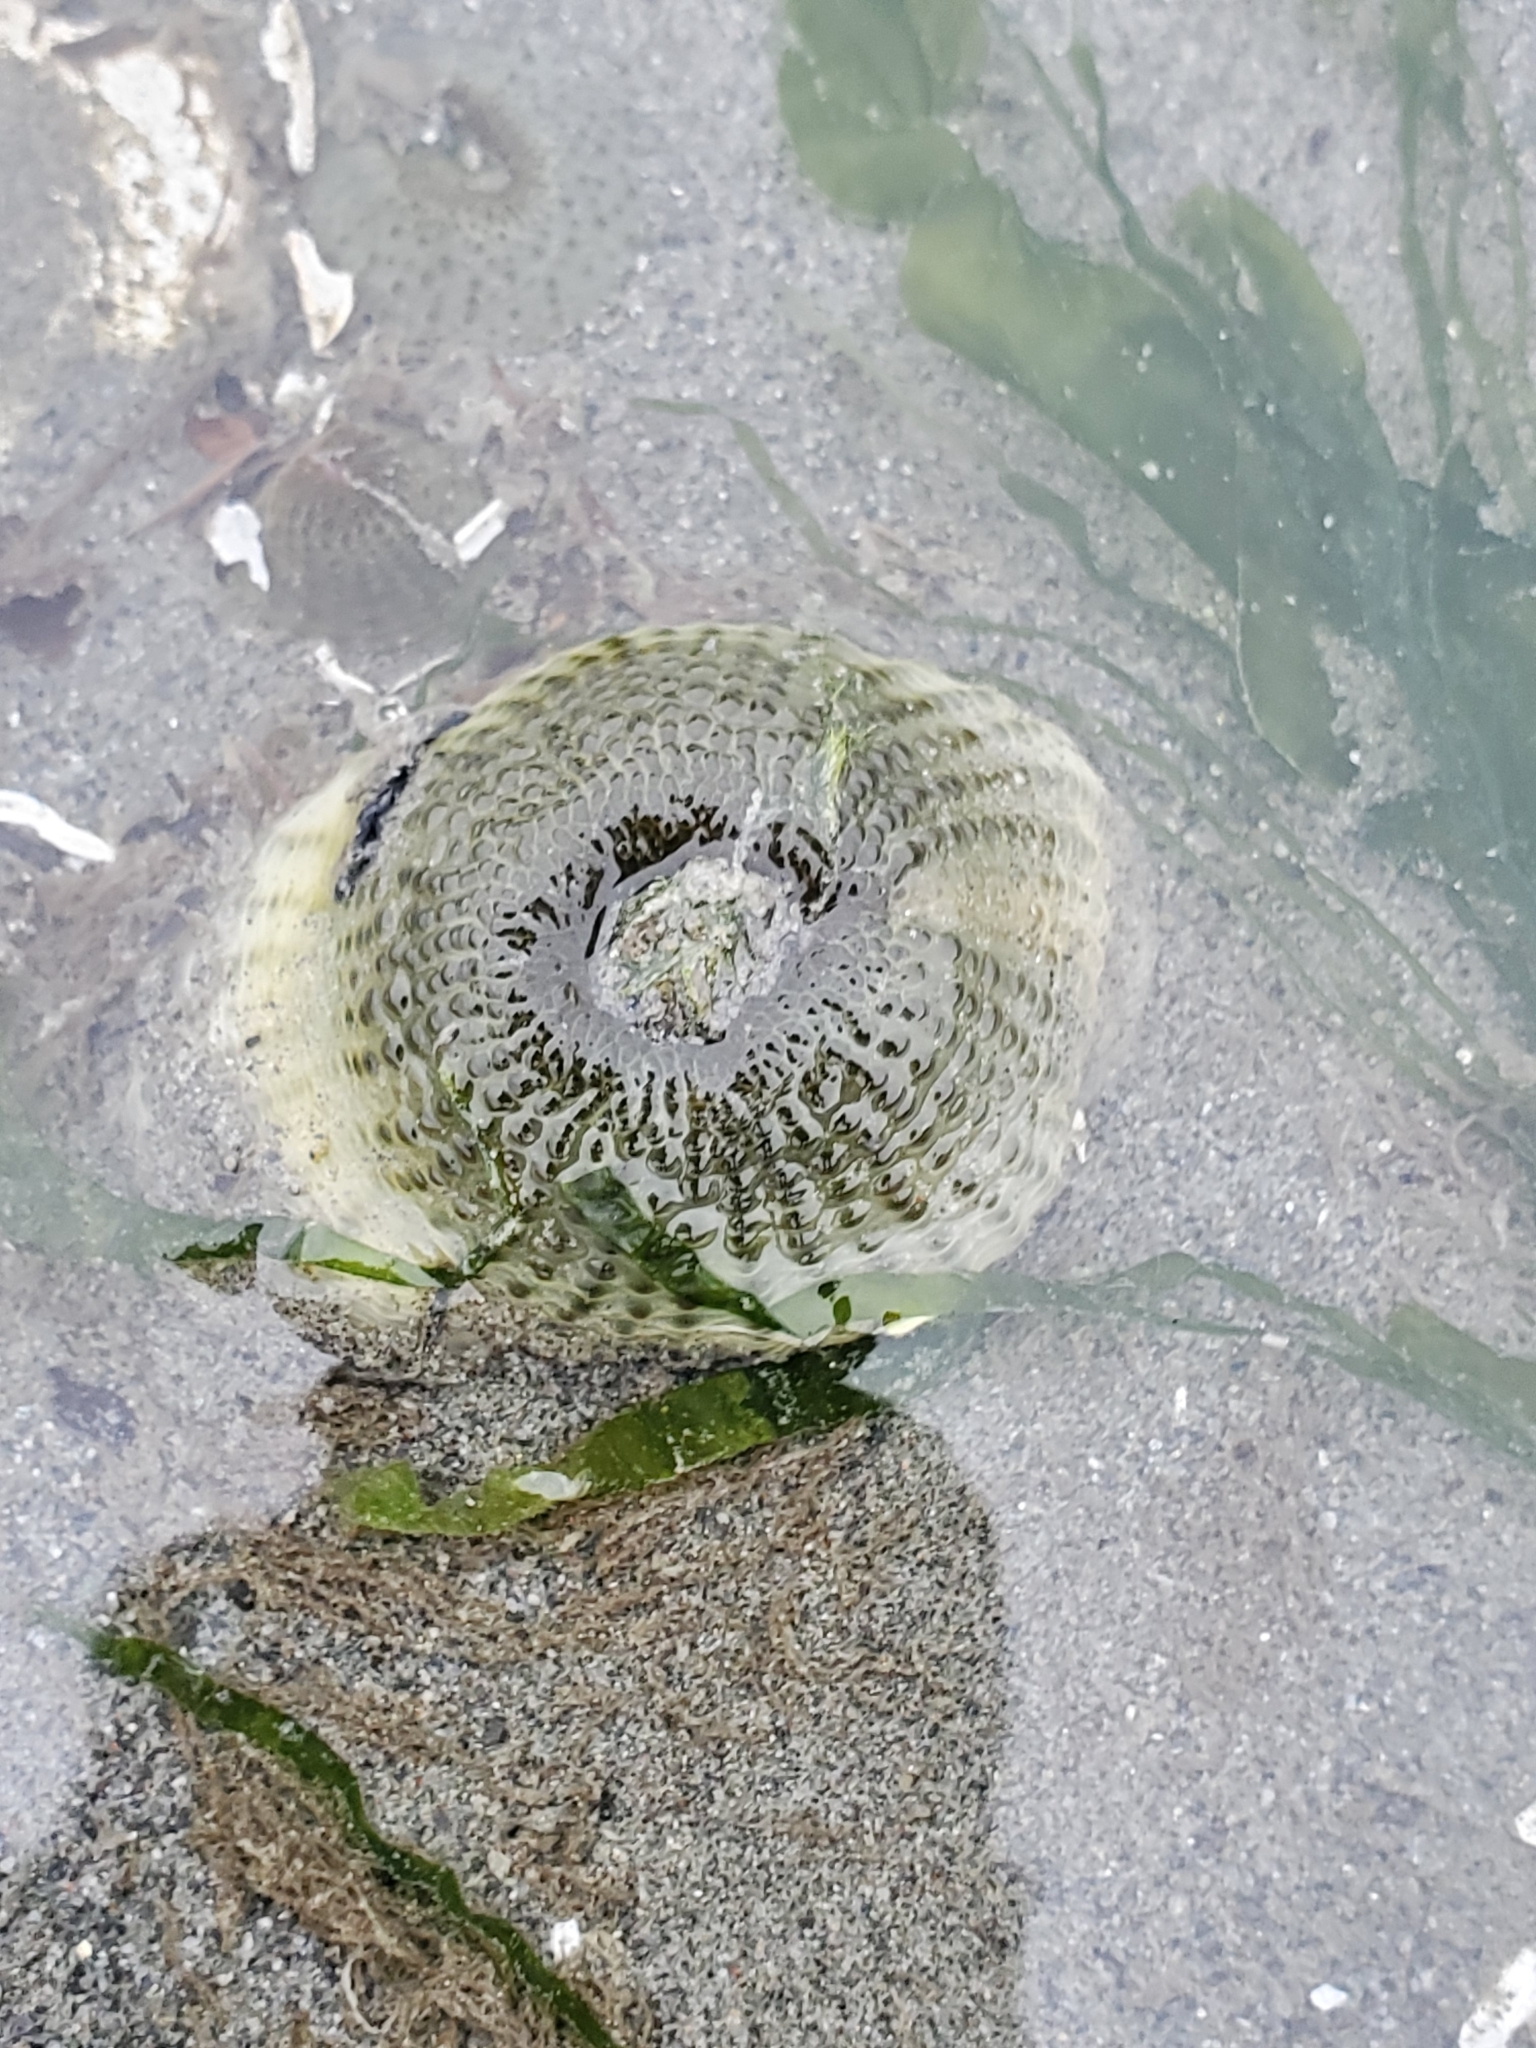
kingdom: Animalia
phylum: Cnidaria
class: Anthozoa
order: Actiniaria
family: Actiniidae
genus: Anthopleura
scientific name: Anthopleura elegantissima
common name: Clonal anemone
